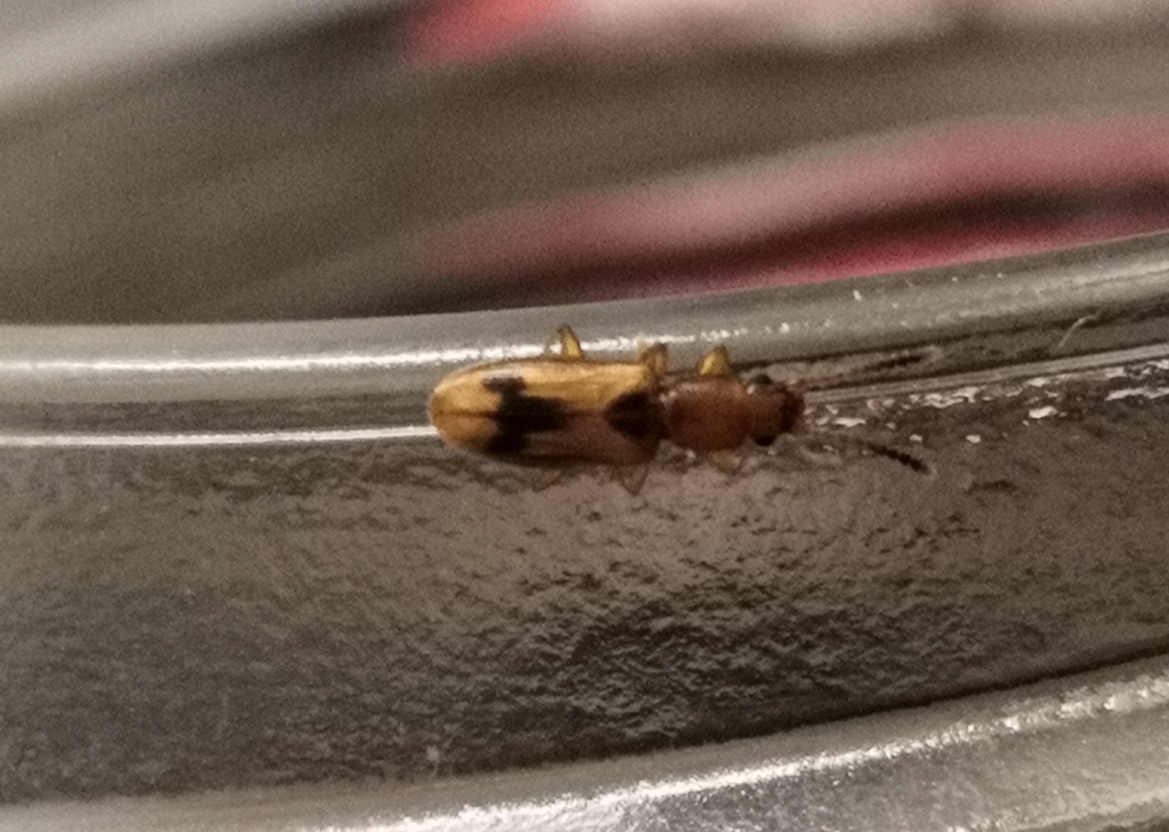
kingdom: Animalia
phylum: Arthropoda
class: Insecta
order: Coleoptera
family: Silvanidae
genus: Cryptamorpha
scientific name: Cryptamorpha desjardinsi
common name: Cryptamorpha
